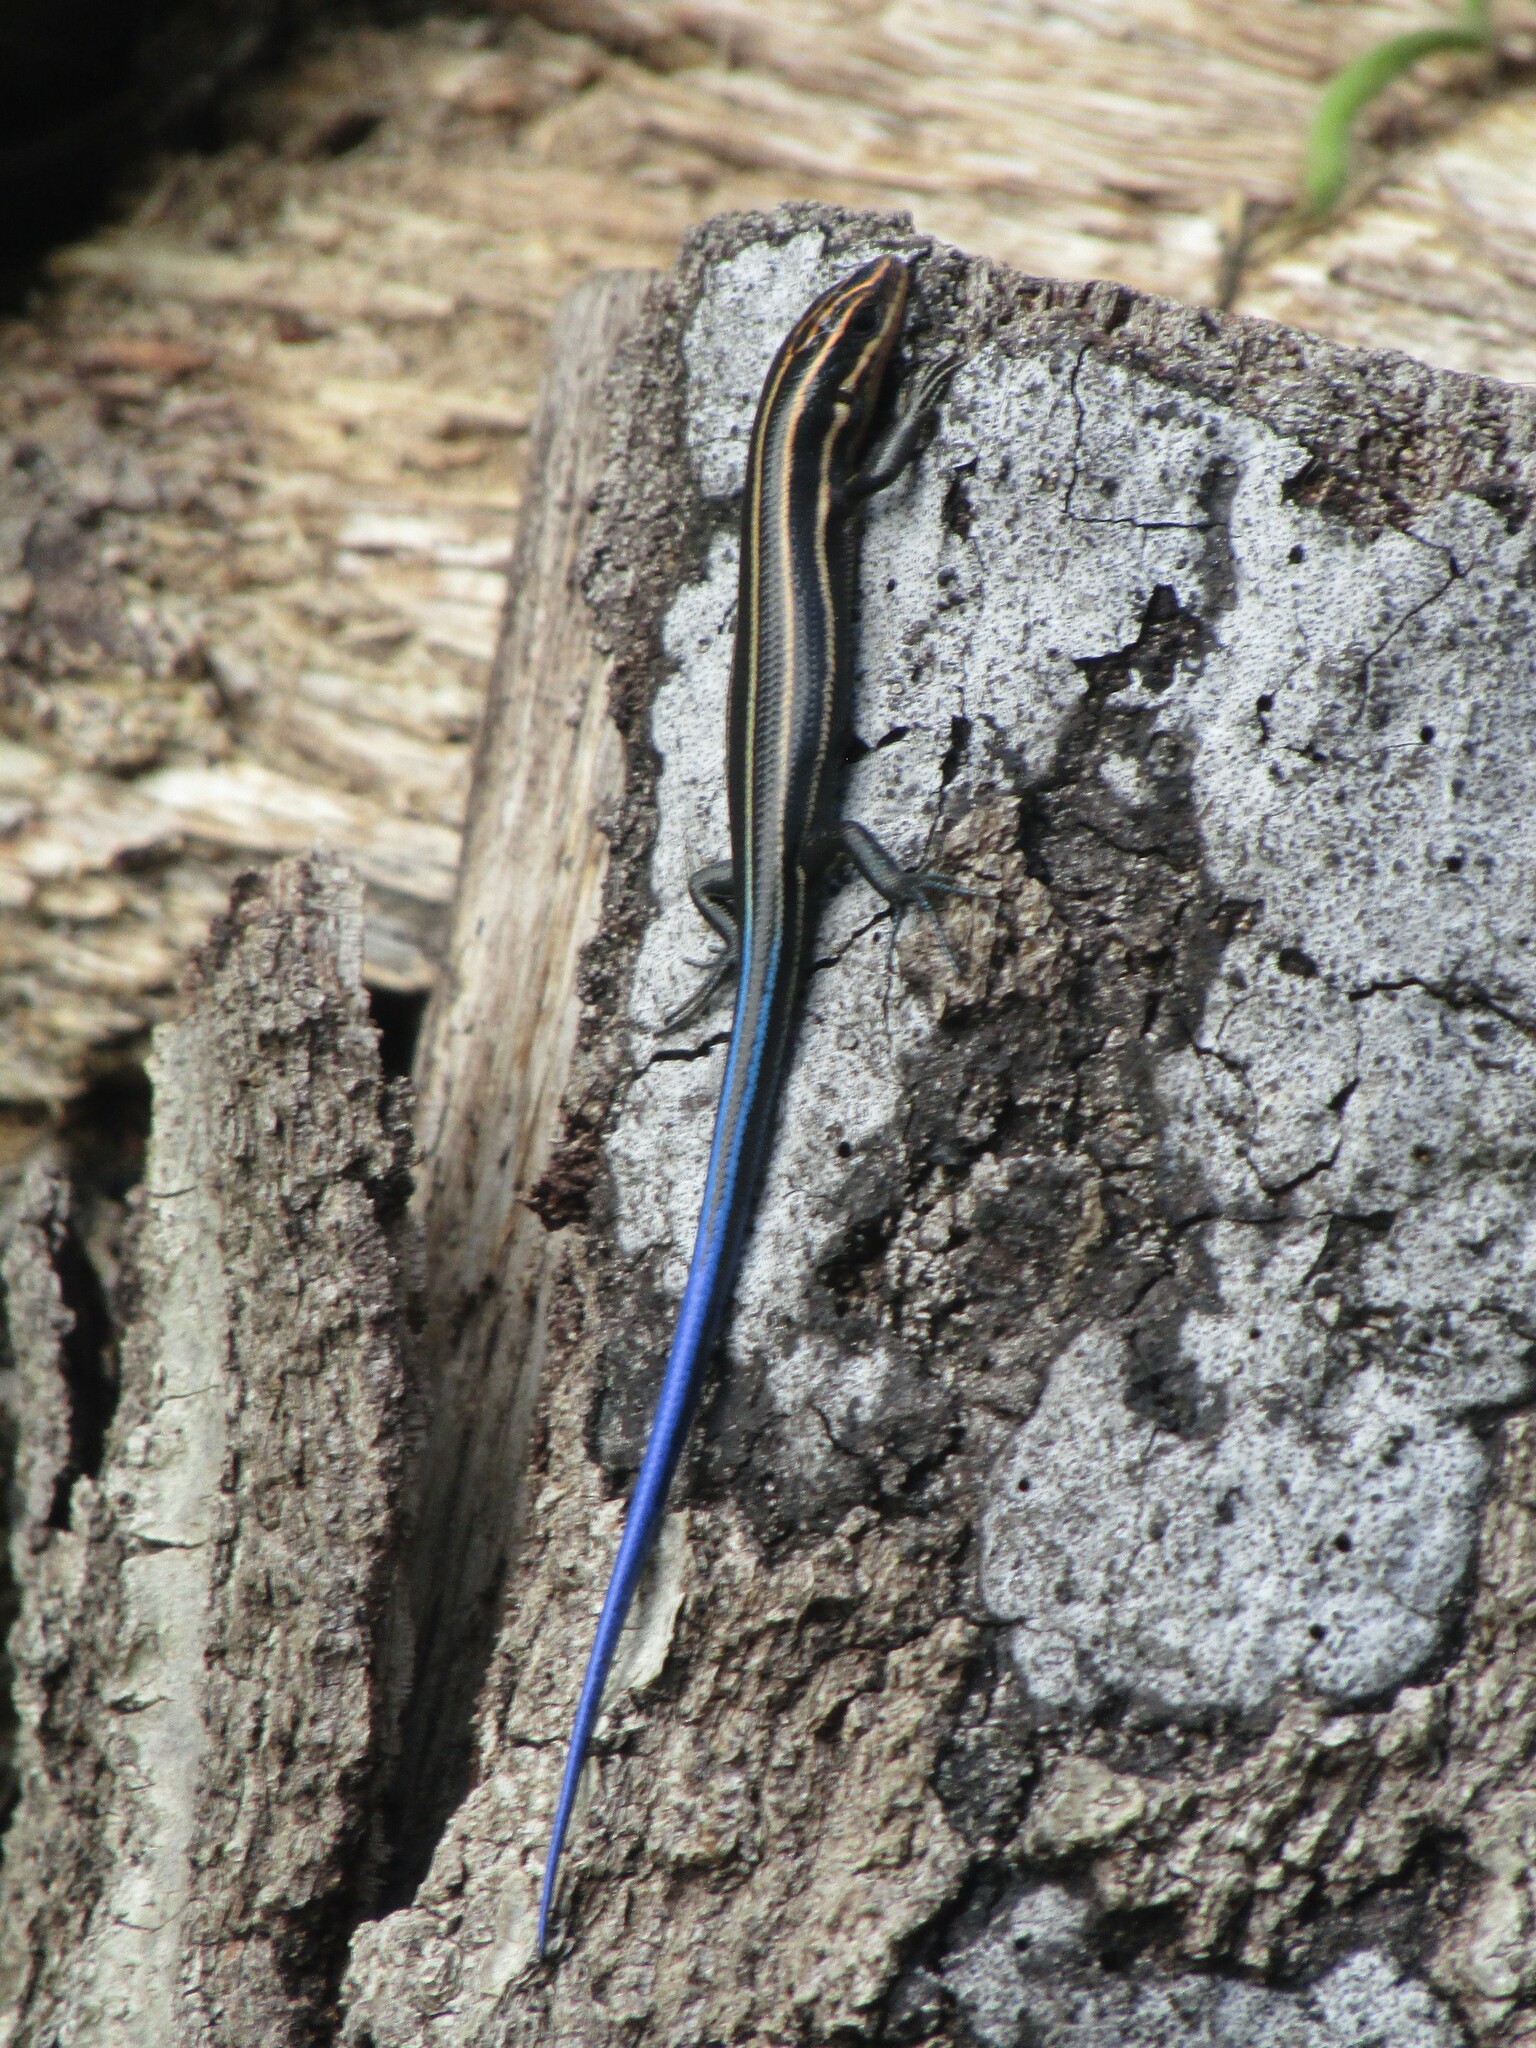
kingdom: Animalia
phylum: Chordata
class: Squamata
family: Scincidae
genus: Plestiodon
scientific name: Plestiodon fasciatus
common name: Five-lined skink
